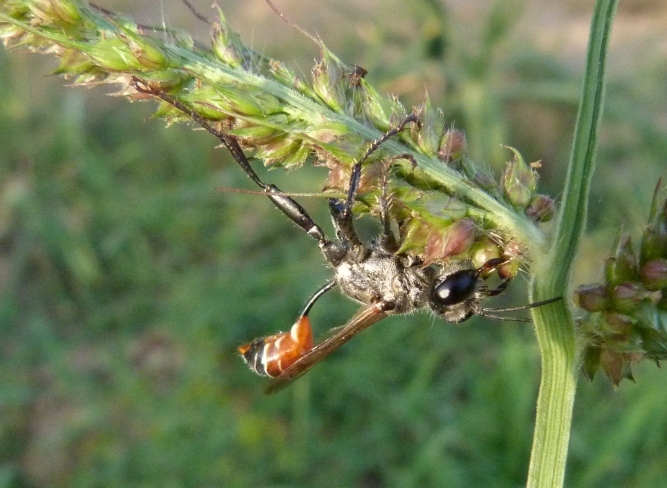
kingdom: Animalia
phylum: Arthropoda
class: Insecta
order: Hymenoptera
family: Sphecidae
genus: Prionyx
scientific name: Prionyx kirbii
